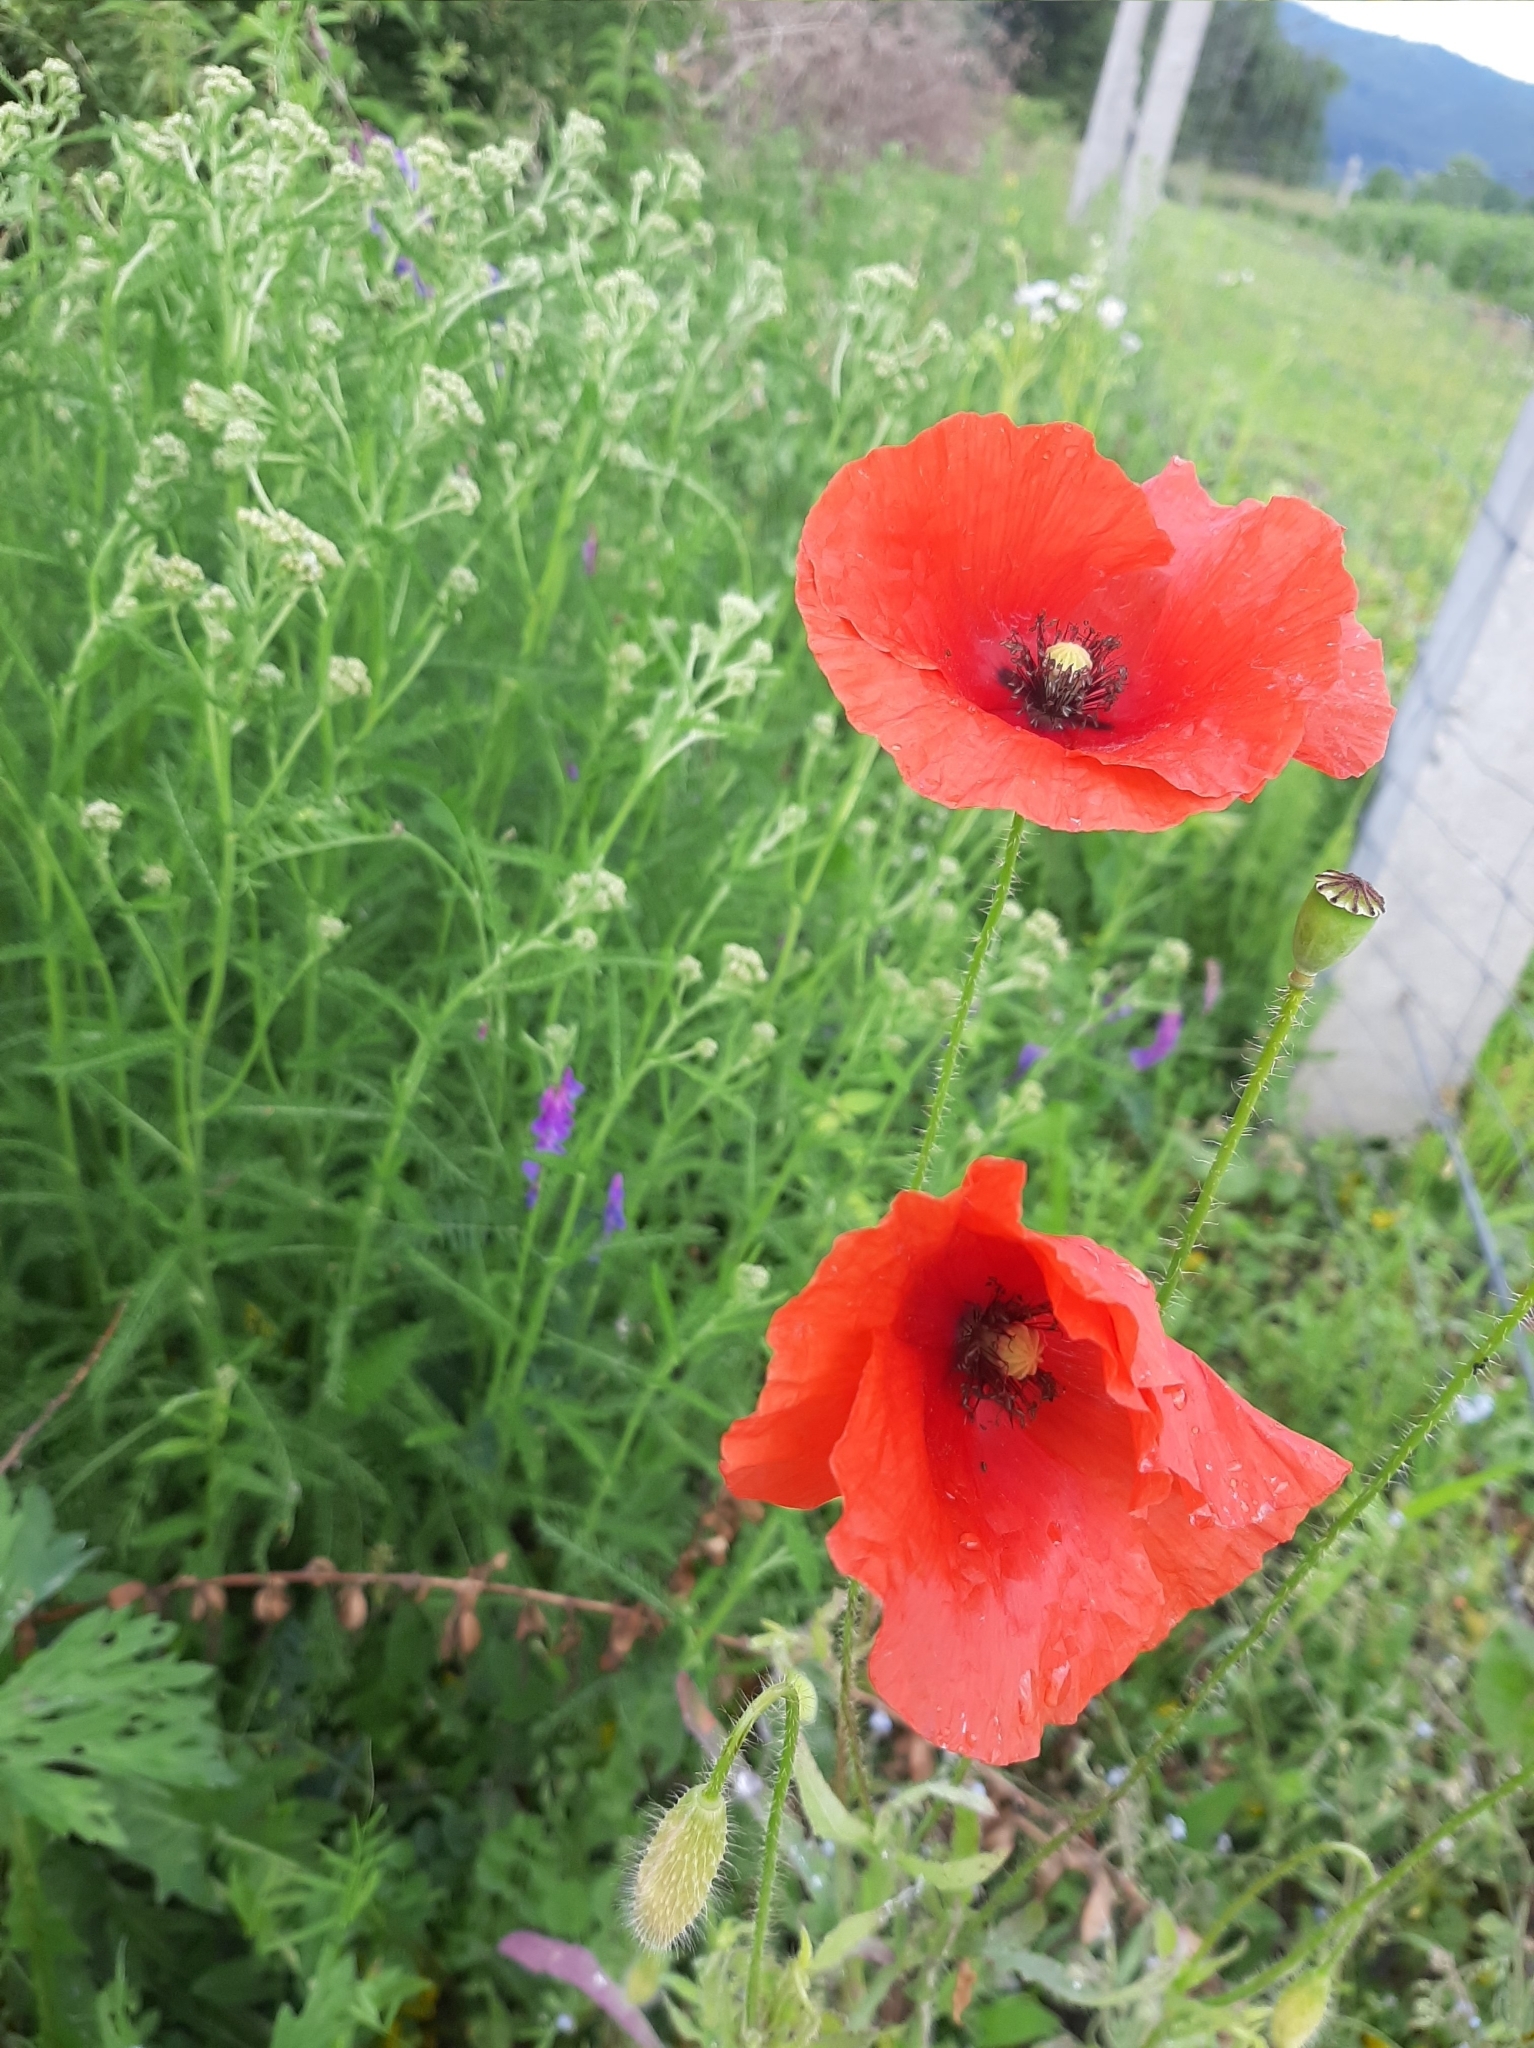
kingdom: Plantae
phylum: Tracheophyta
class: Magnoliopsida
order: Ranunculales
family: Papaveraceae
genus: Papaver
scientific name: Papaver rhoeas
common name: Corn poppy
